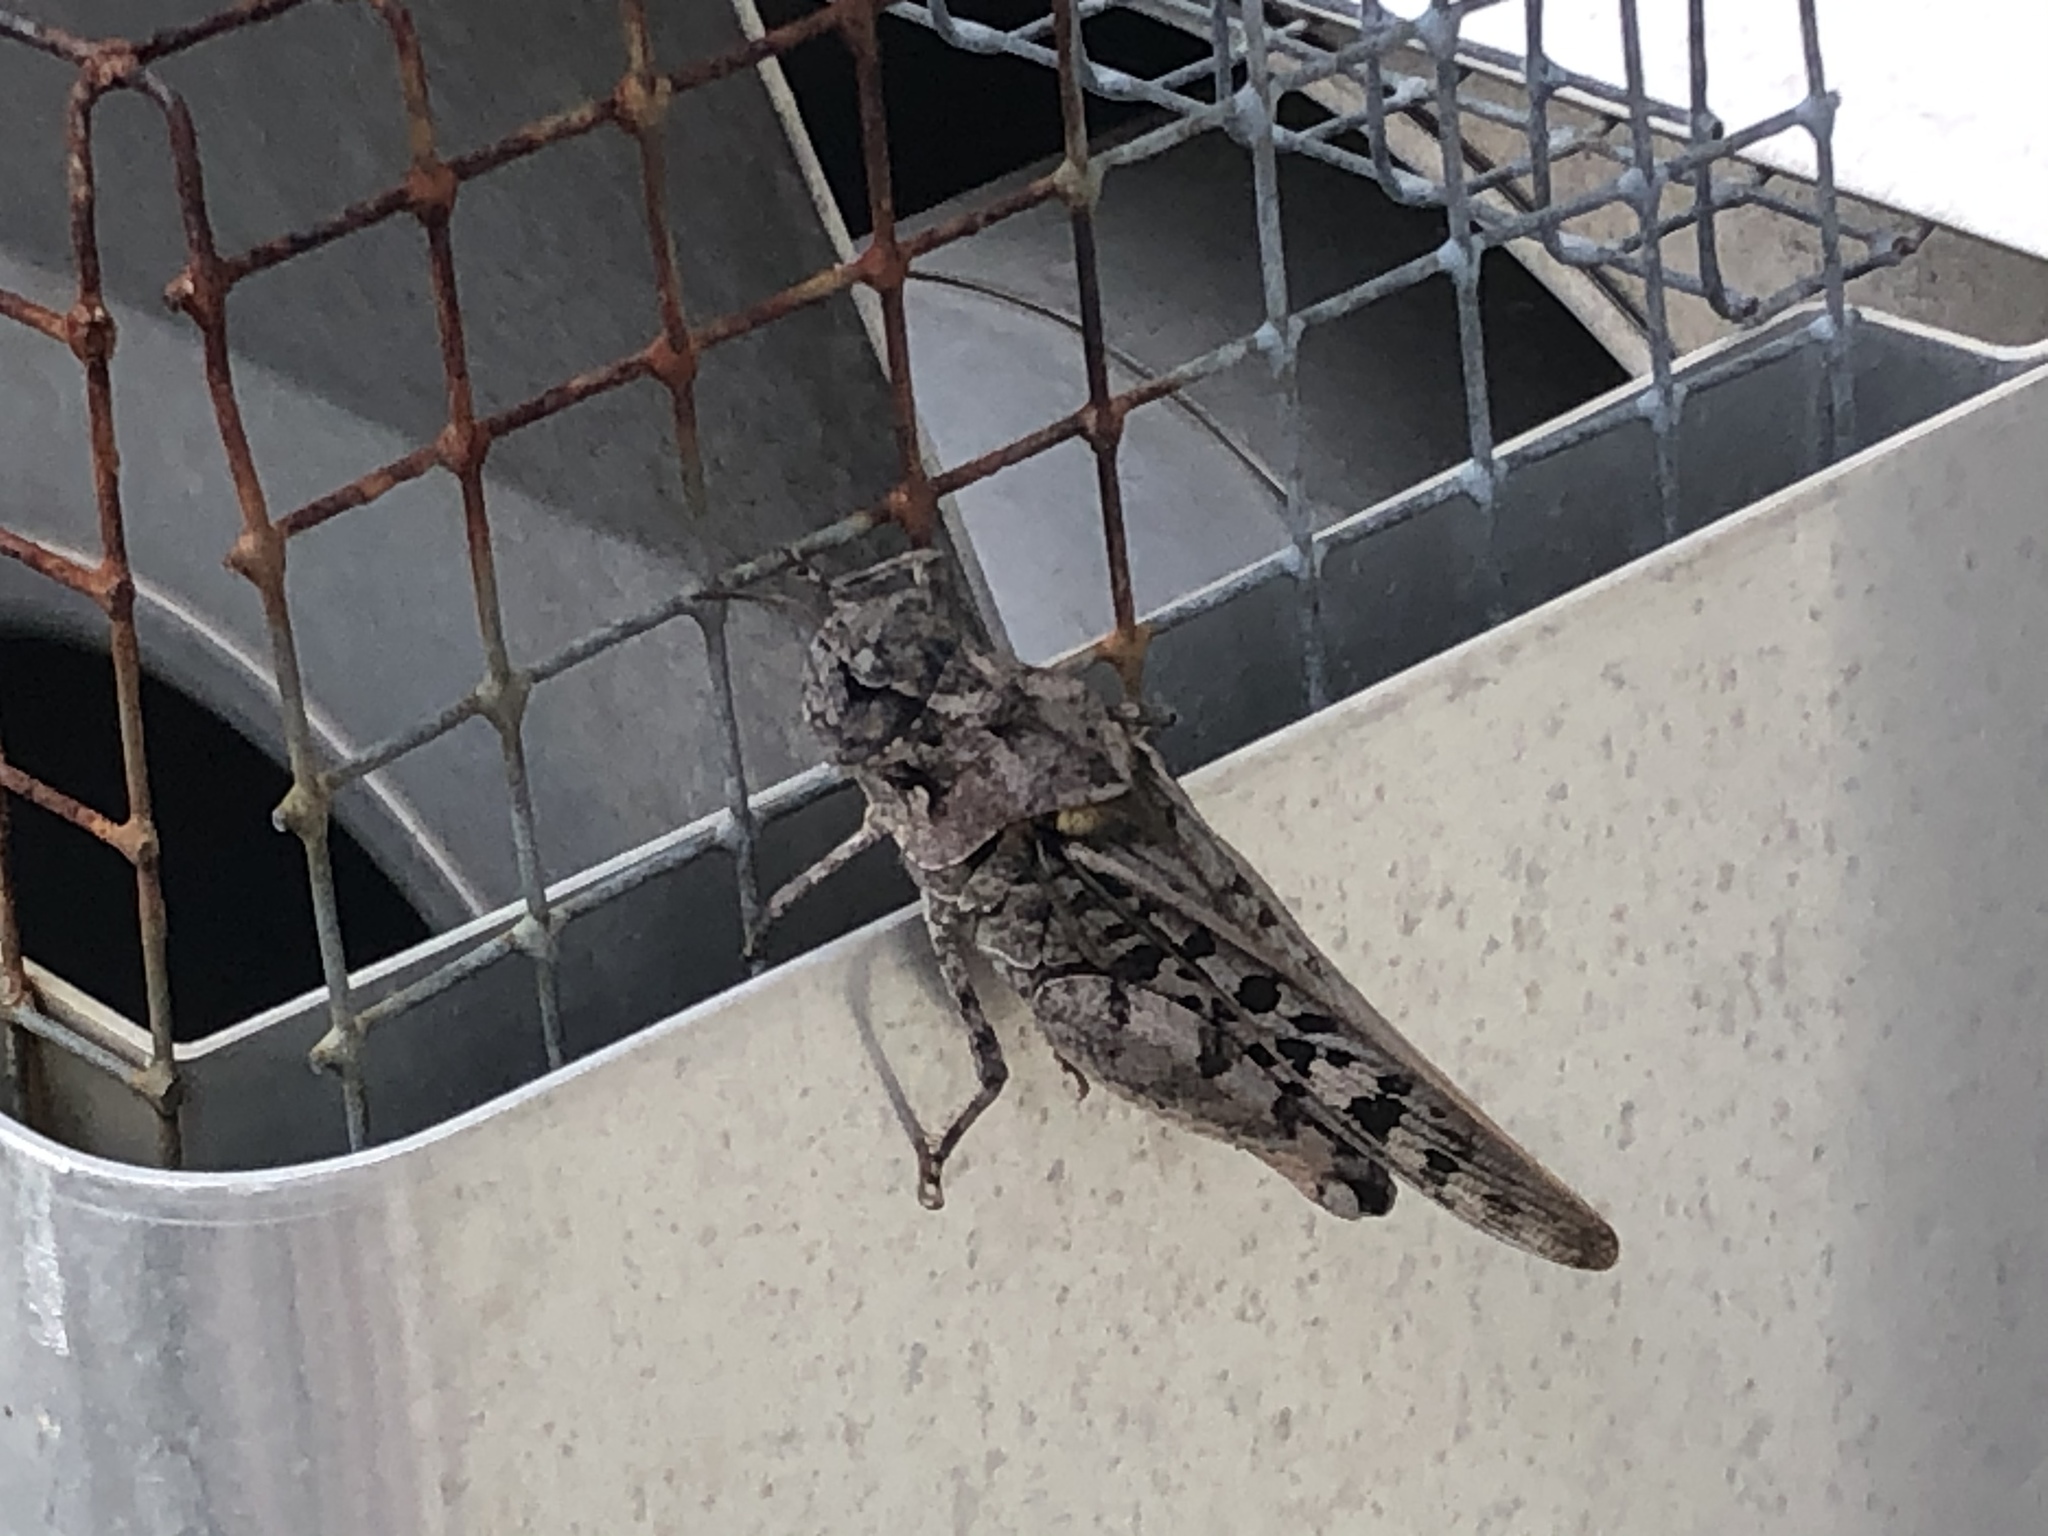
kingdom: Animalia
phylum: Arthropoda
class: Insecta
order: Orthoptera
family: Acrididae
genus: Pardalophora
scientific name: Pardalophora phoenicoptera
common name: Orange-winged grasshopper
